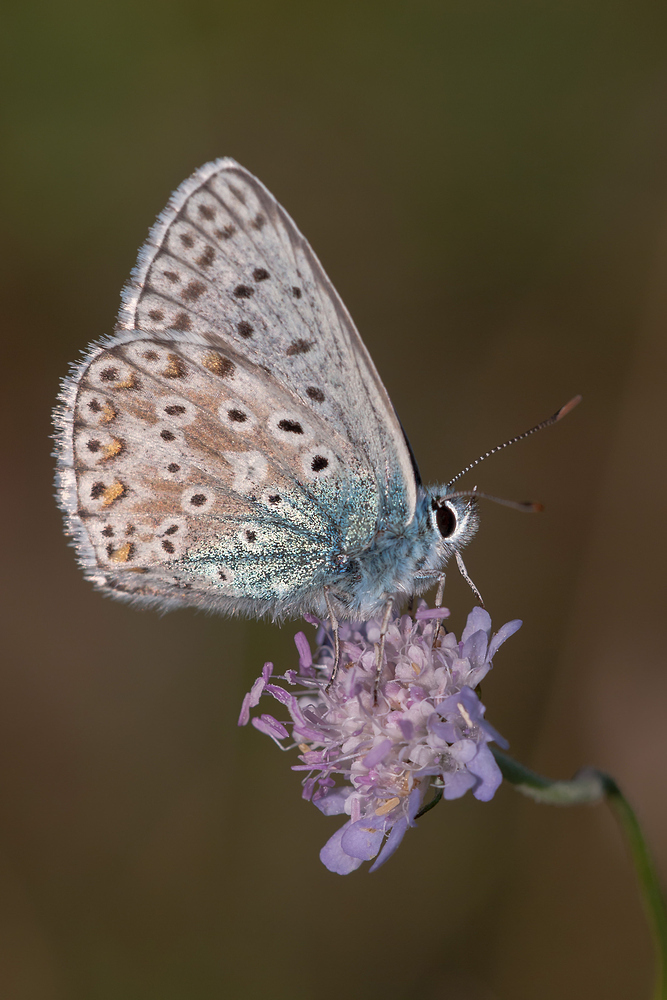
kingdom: Animalia
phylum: Arthropoda
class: Insecta
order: Lepidoptera
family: Lycaenidae
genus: Polyommatus
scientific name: Polyommatus icarus
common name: Common blue
